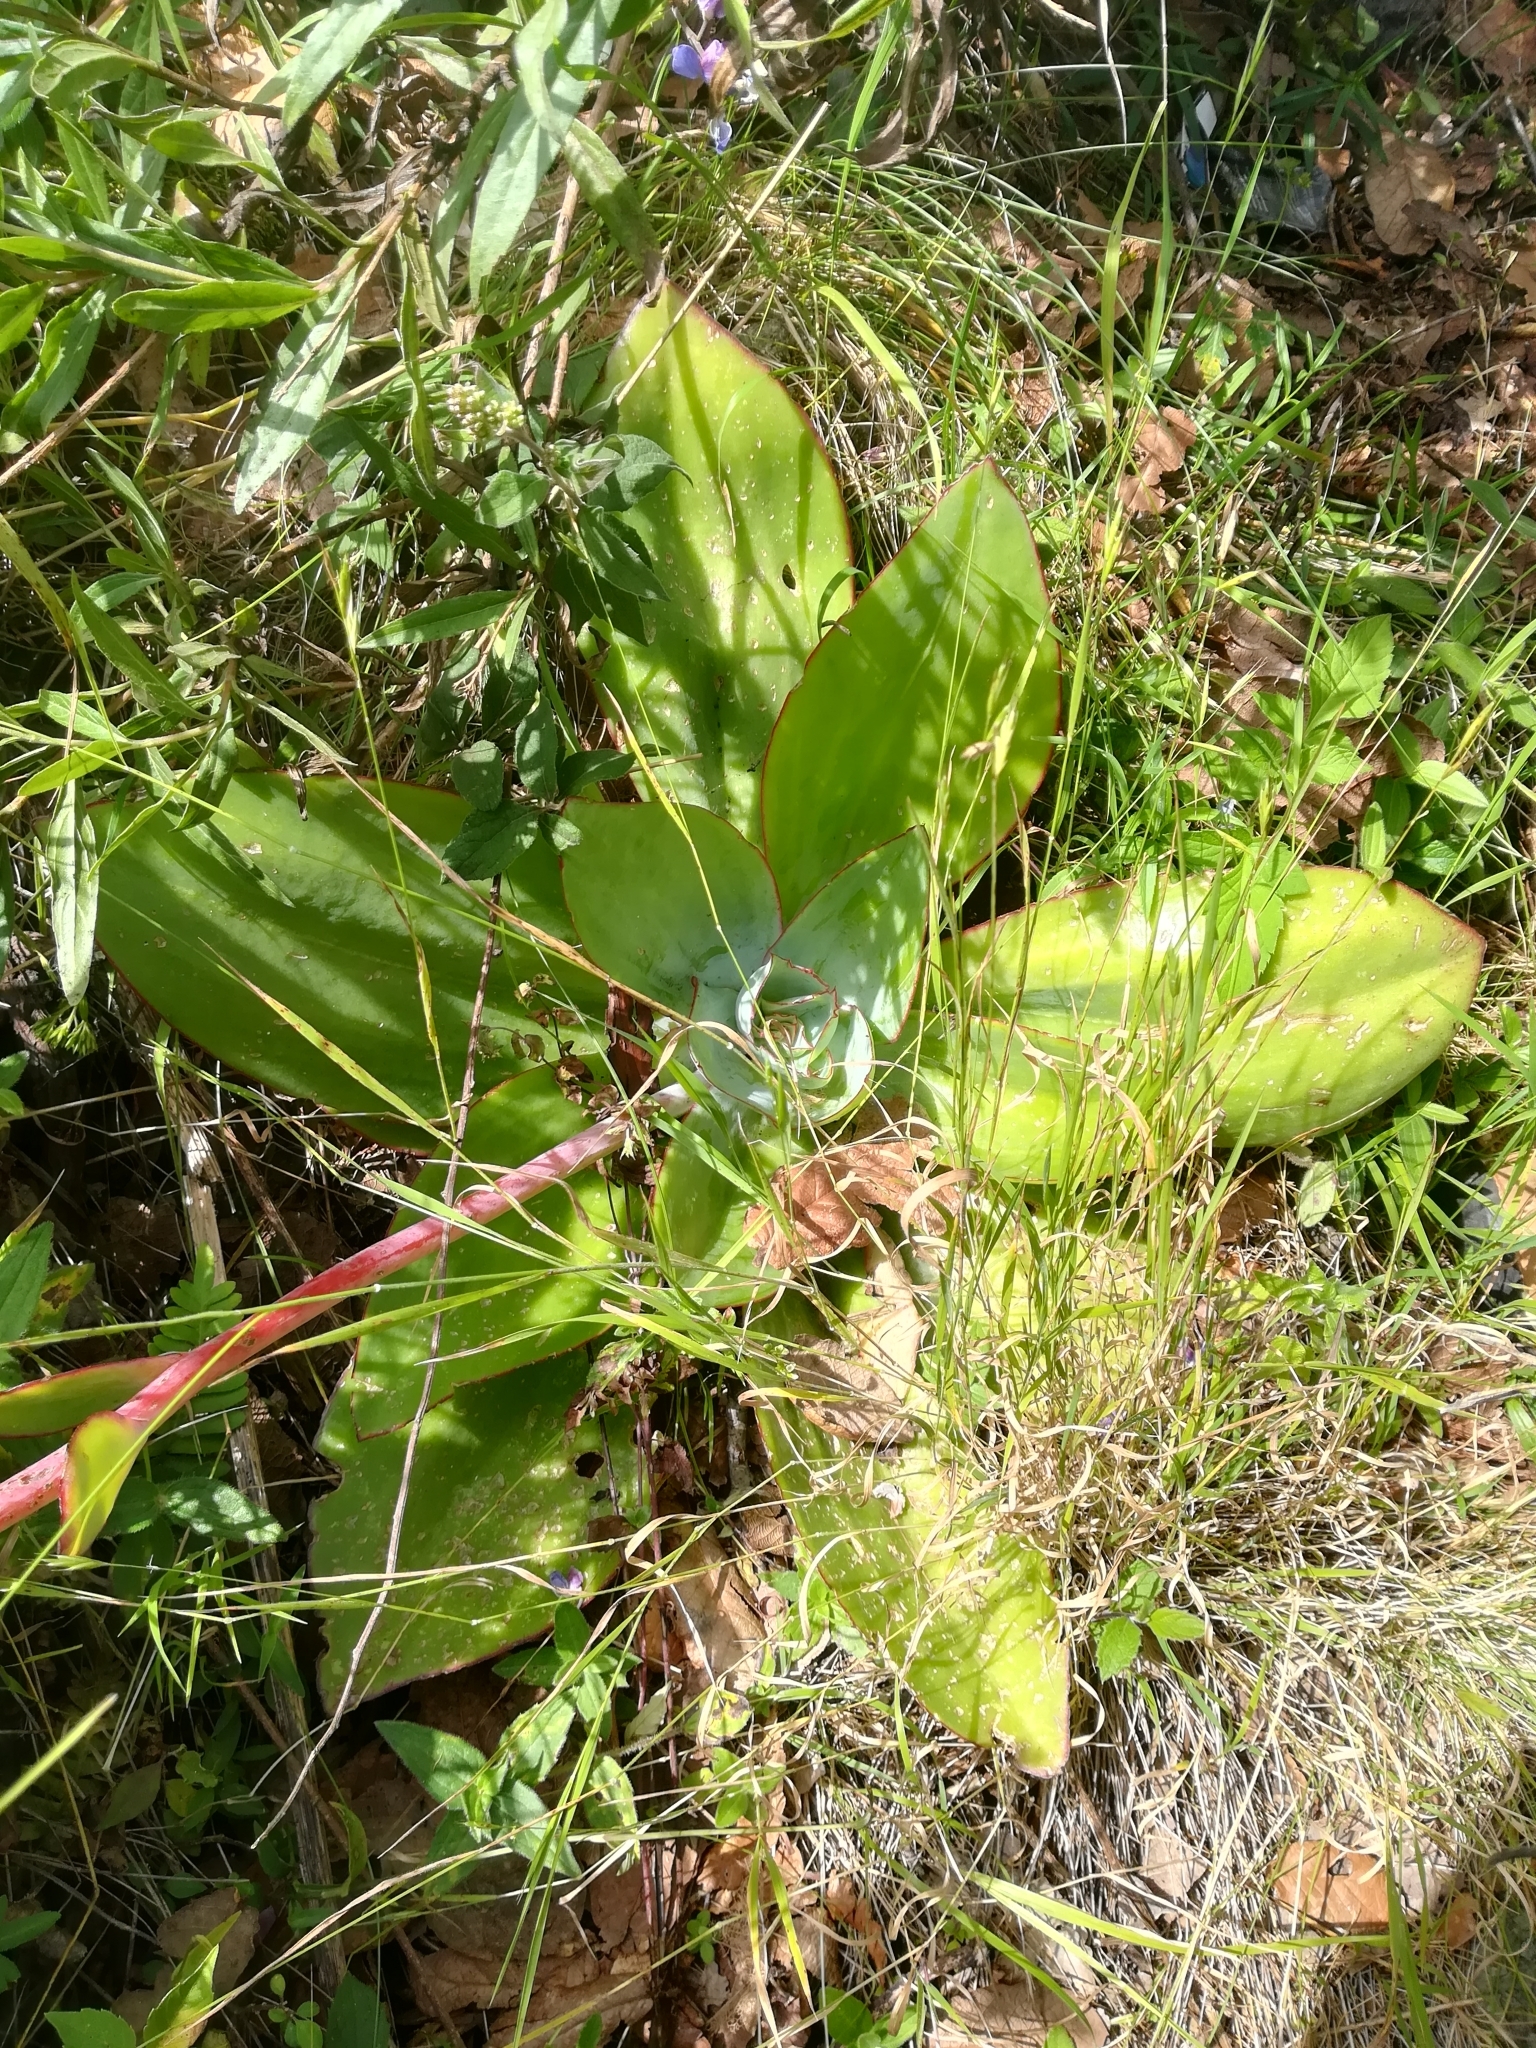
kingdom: Plantae
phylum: Tracheophyta
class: Magnoliopsida
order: Saxifragales
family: Crassulaceae
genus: Echeveria
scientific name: Echeveria subrigida
